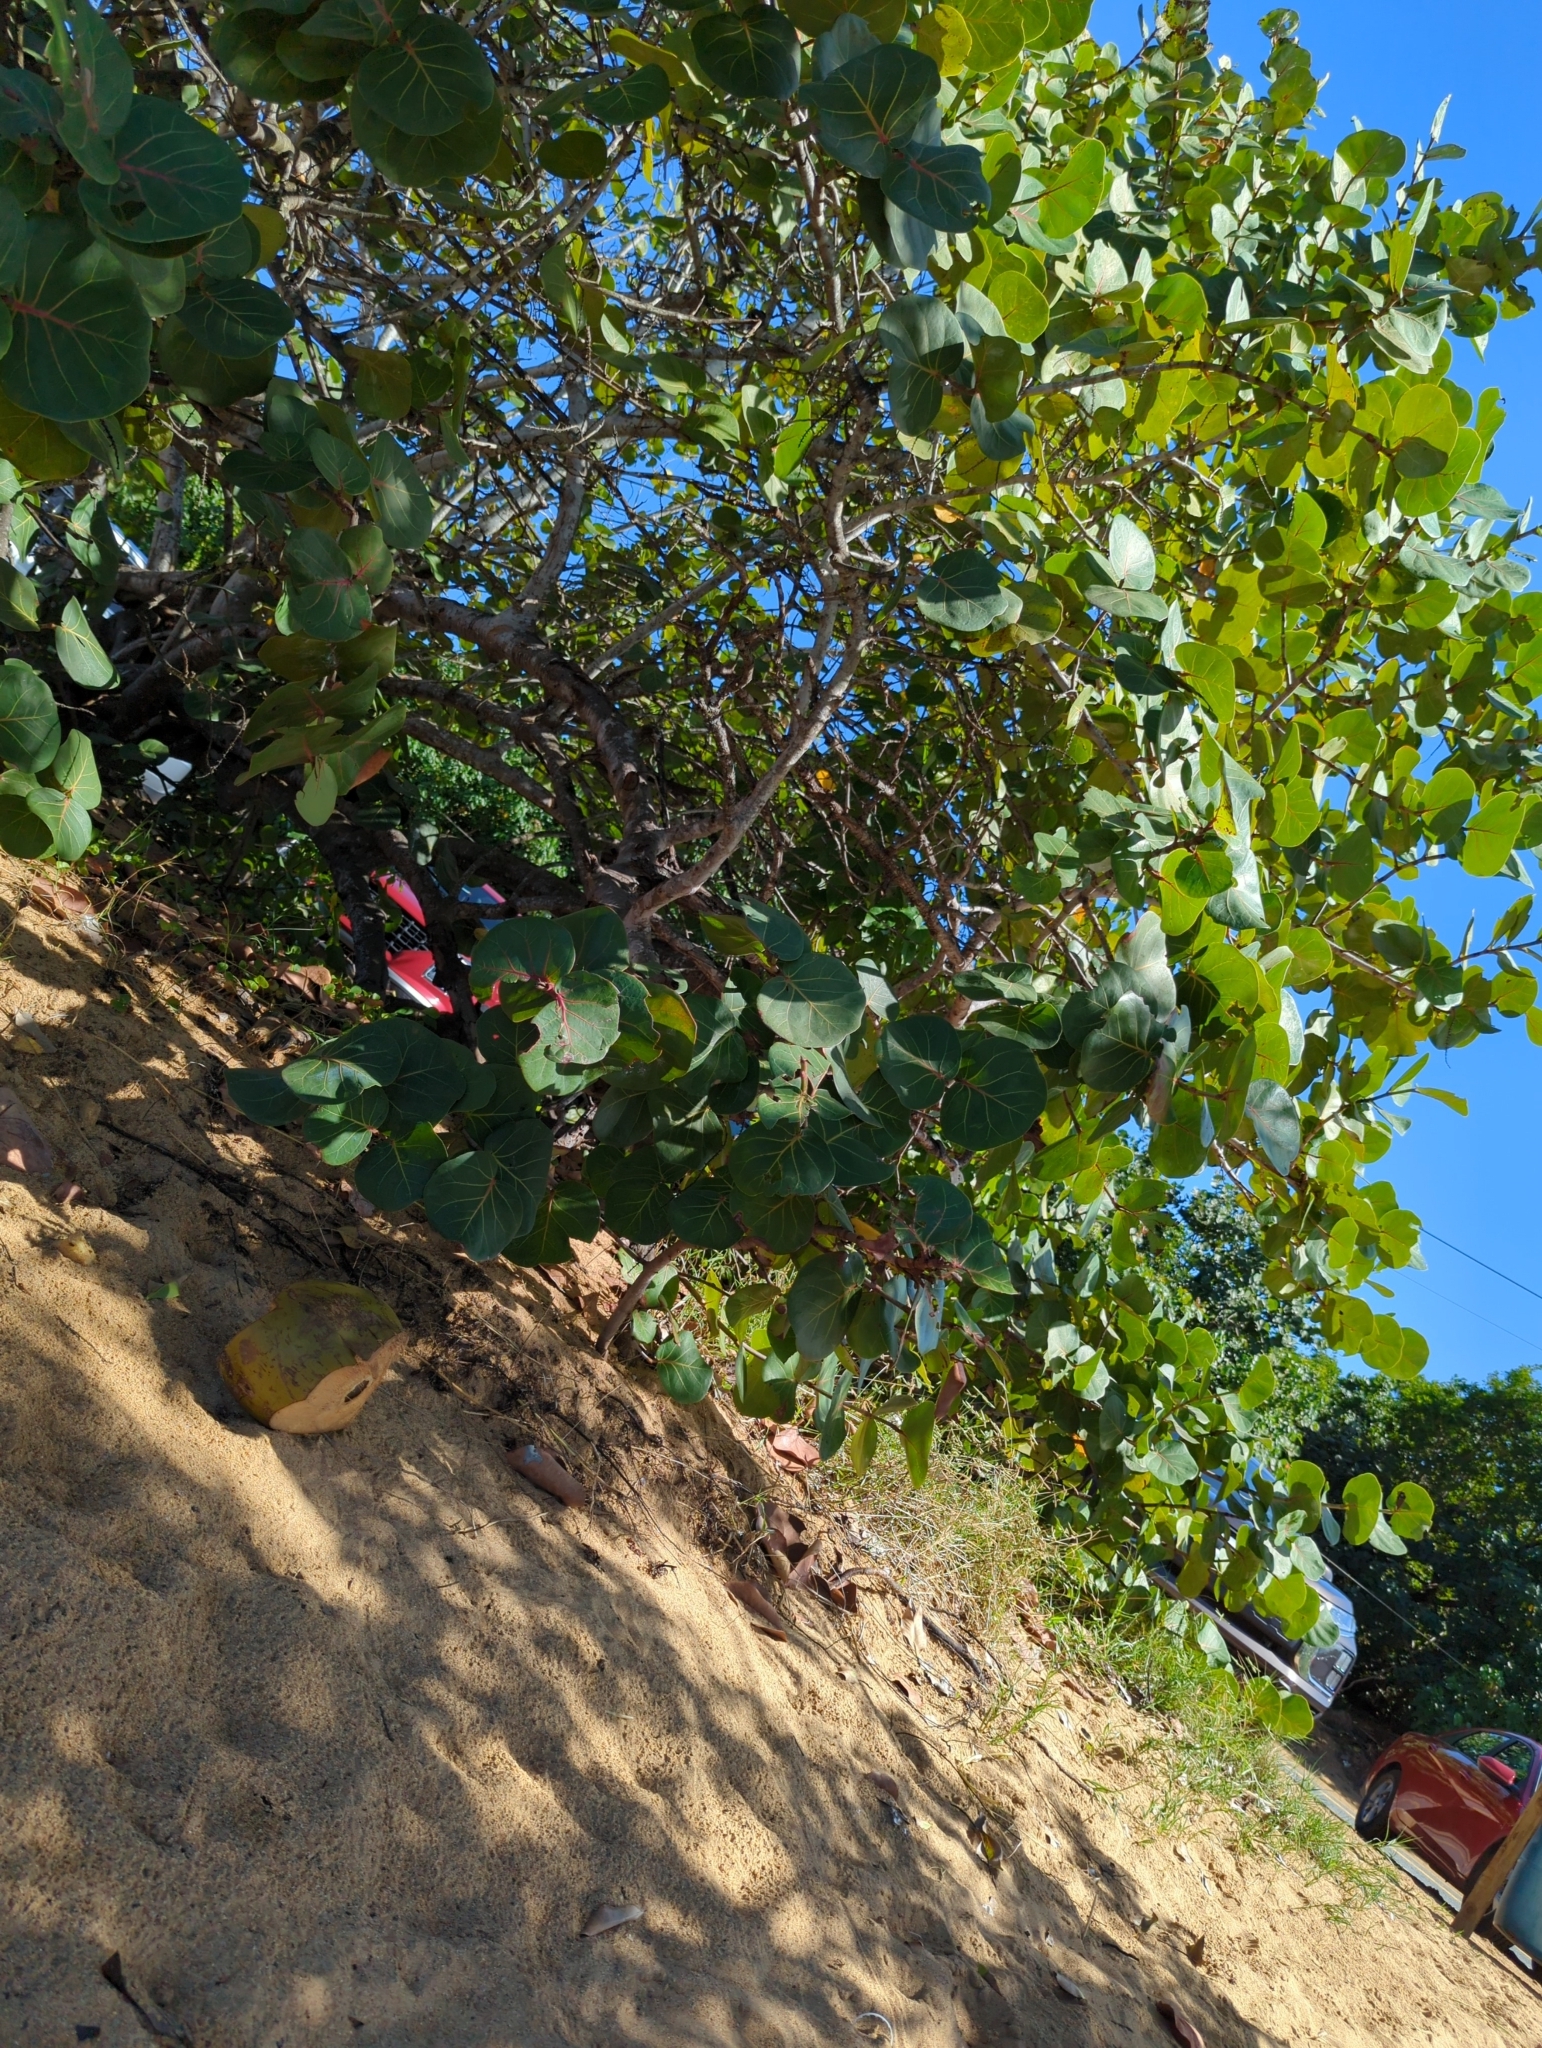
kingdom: Plantae
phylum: Tracheophyta
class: Magnoliopsida
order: Caryophyllales
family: Polygonaceae
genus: Coccoloba
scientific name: Coccoloba uvifera
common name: Seagrape
